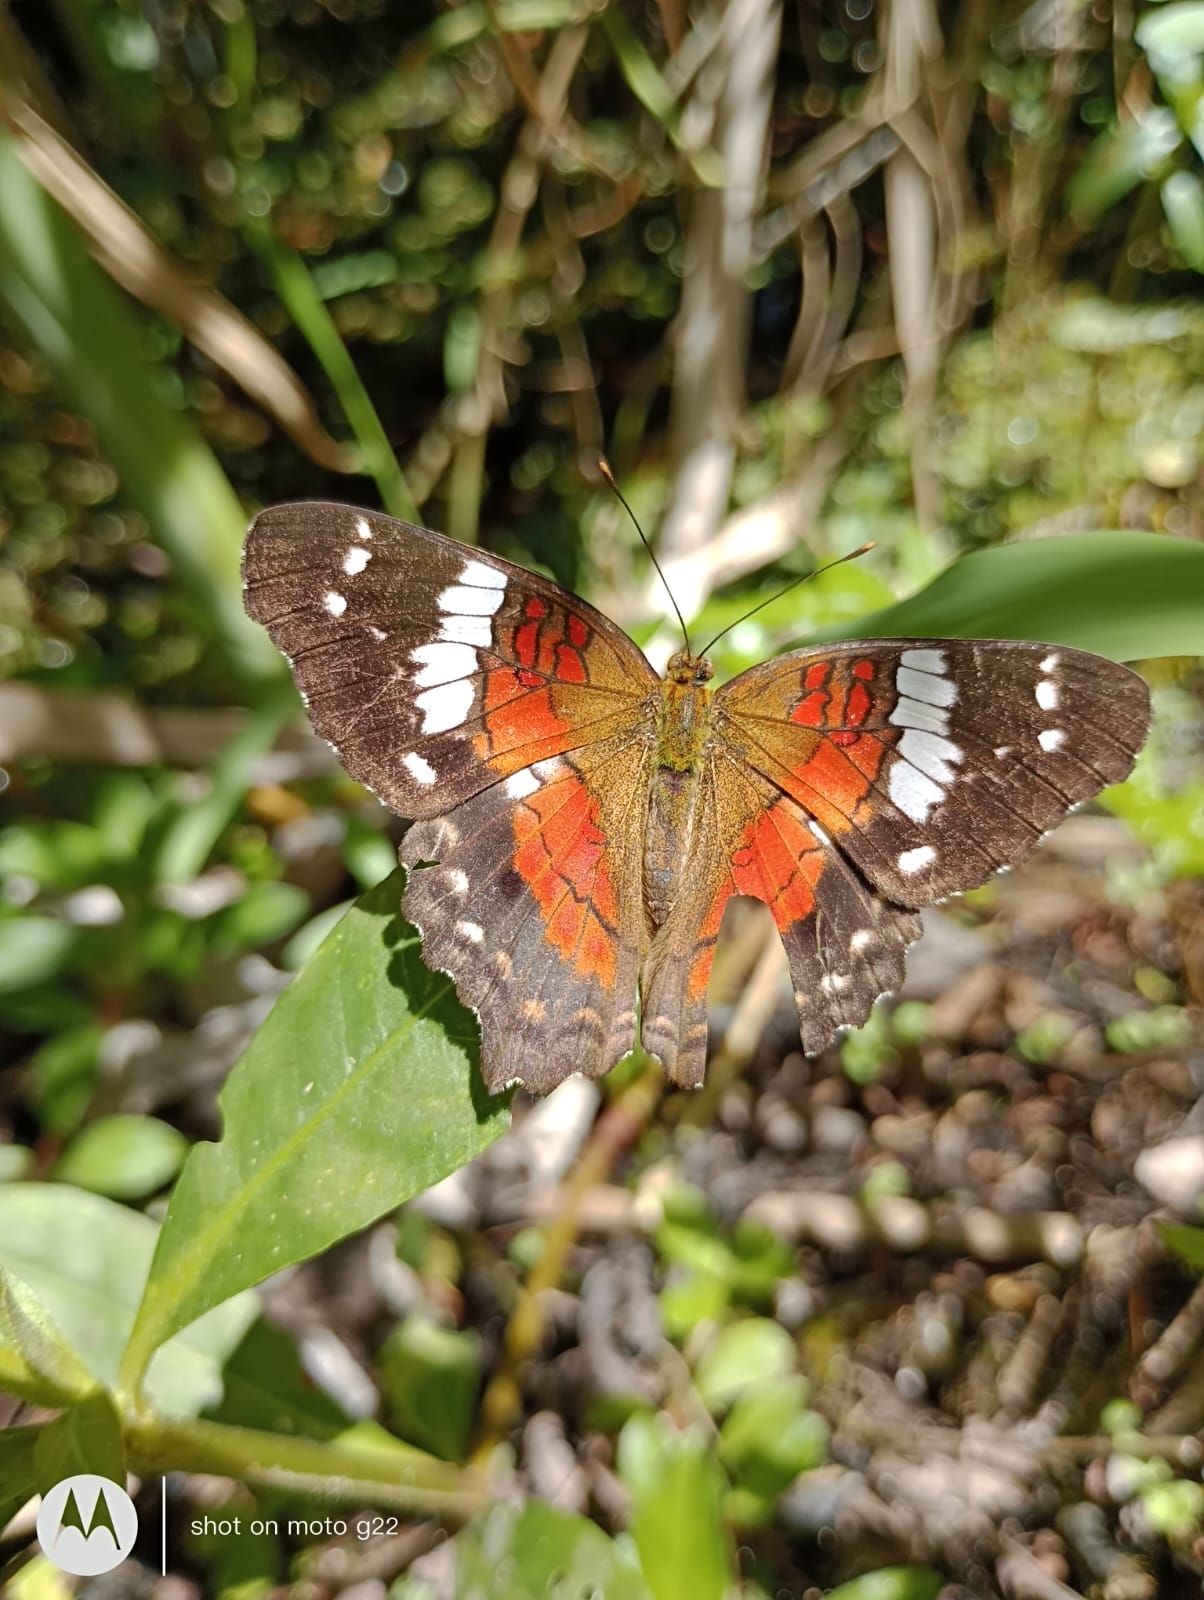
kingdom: Animalia
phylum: Arthropoda
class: Insecta
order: Lepidoptera
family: Nymphalidae
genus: Anartia
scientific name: Anartia amathea
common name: Red peacock
